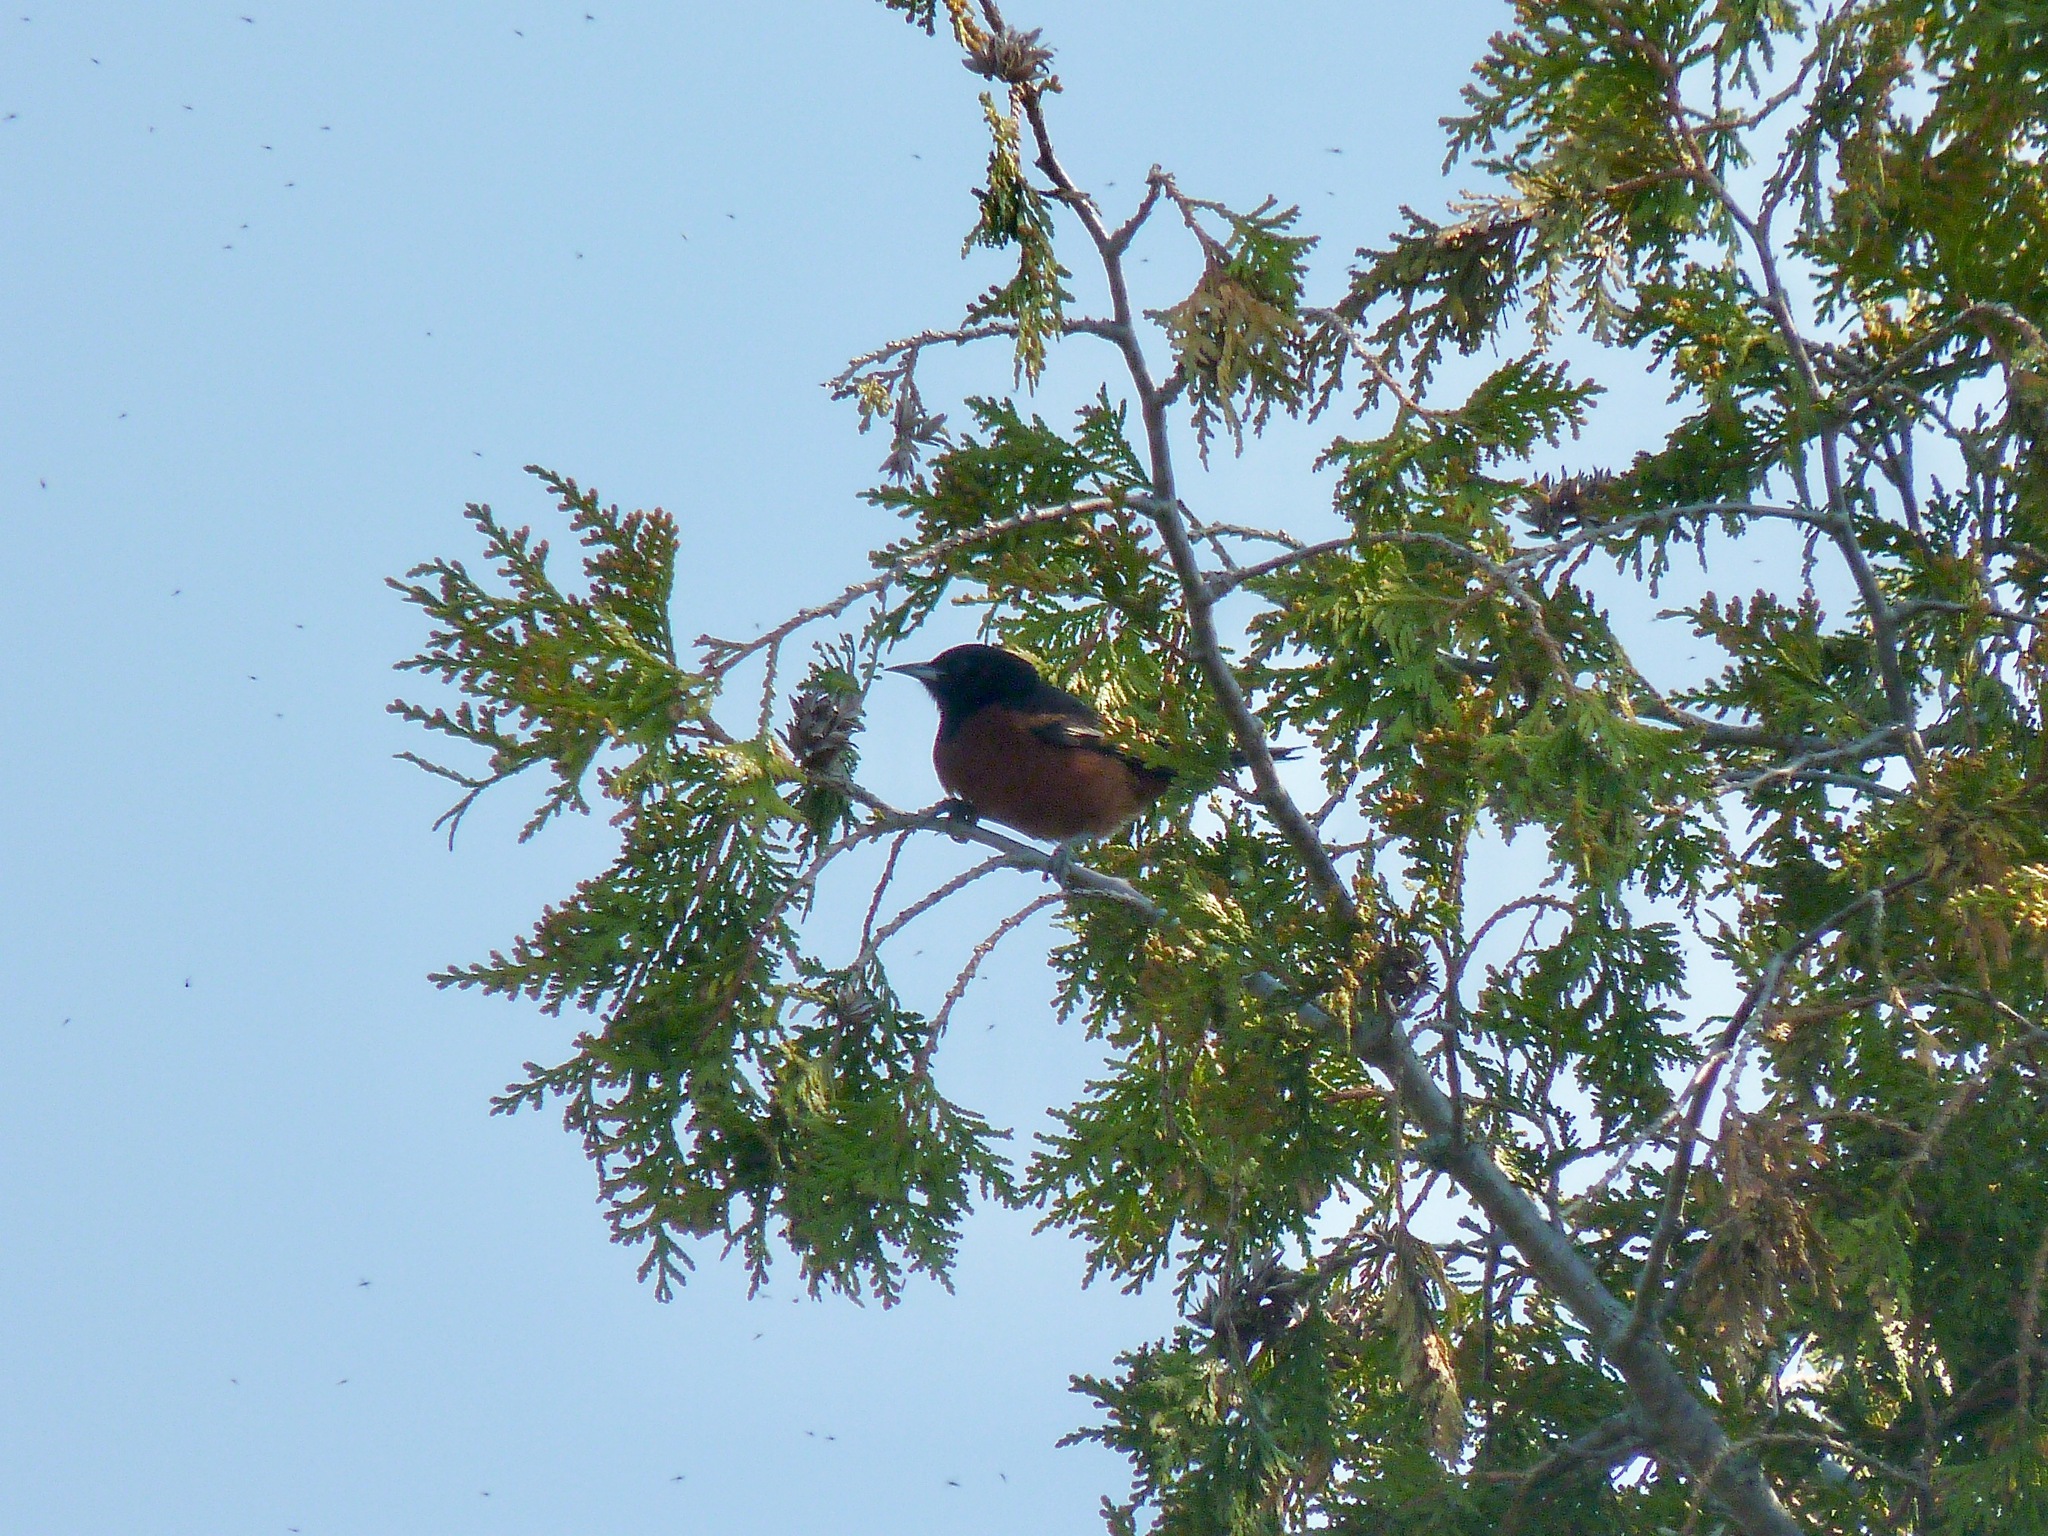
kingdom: Animalia
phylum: Chordata
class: Aves
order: Passeriformes
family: Icteridae
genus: Icterus
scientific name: Icterus spurius
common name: Orchard oriole
